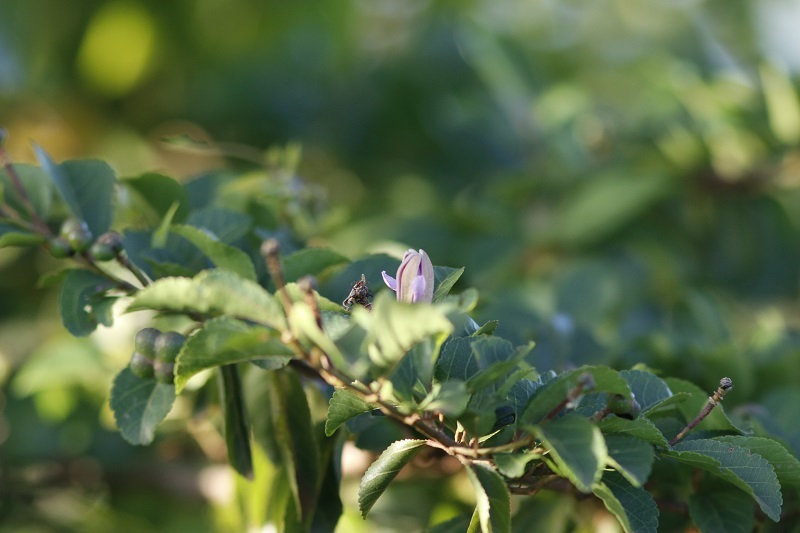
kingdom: Plantae
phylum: Tracheophyta
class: Magnoliopsida
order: Malvales
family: Malvaceae
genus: Grewia
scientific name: Grewia occidentalis
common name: Crossberry
